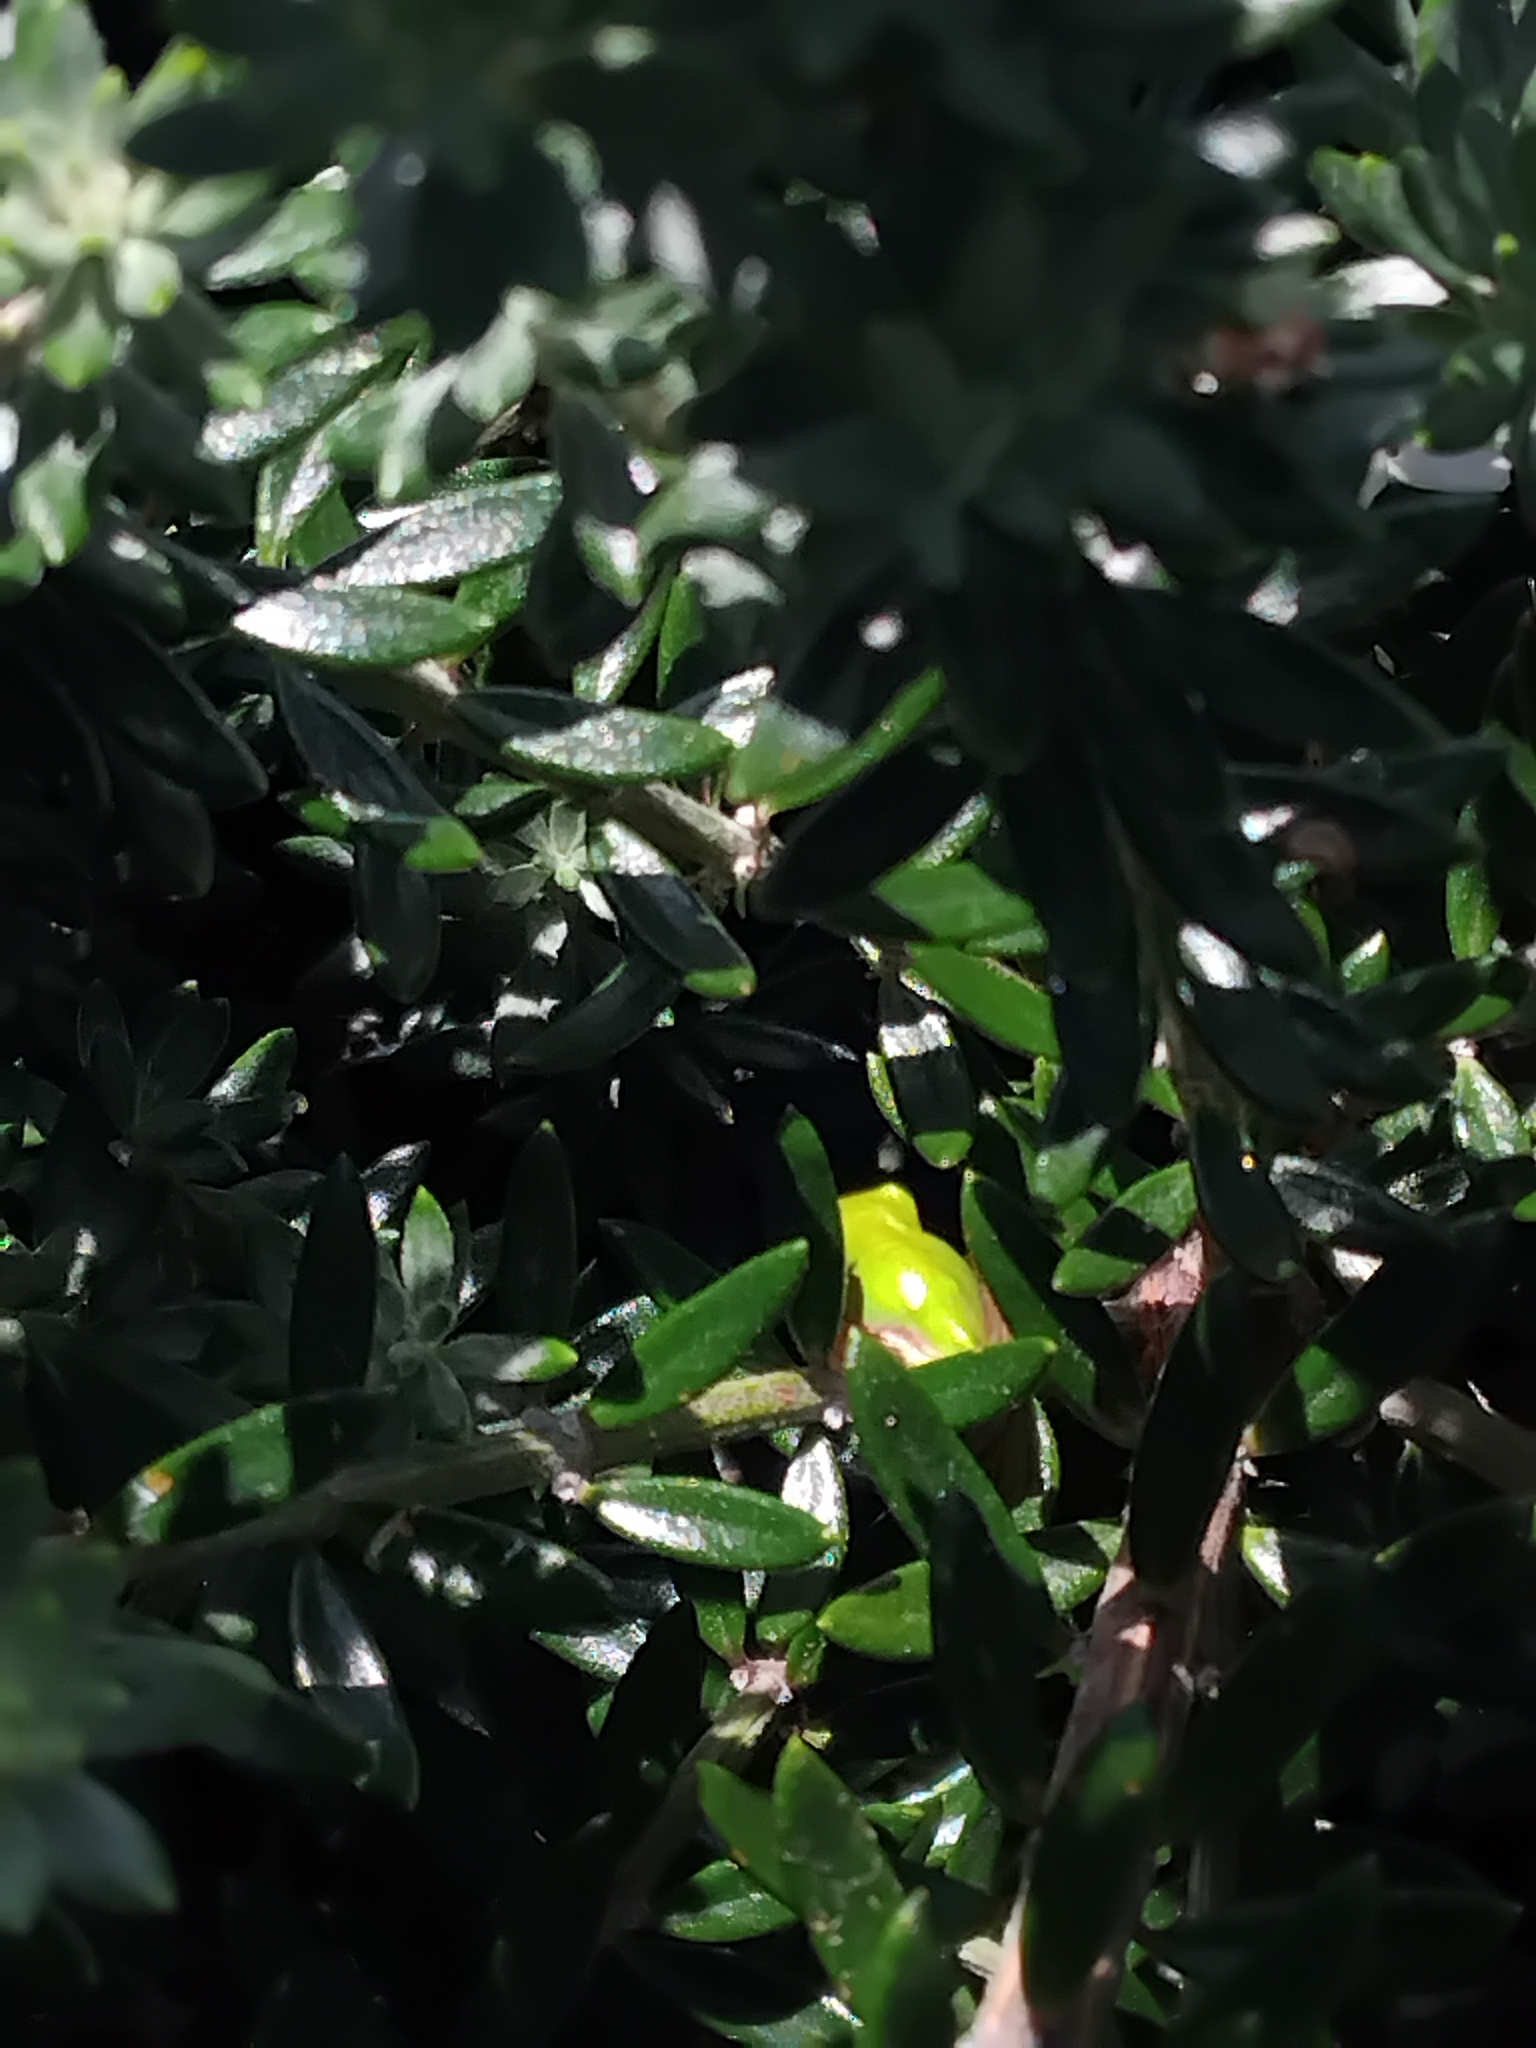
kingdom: Animalia
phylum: Chordata
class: Amphibia
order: Anura
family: Pelodryadidae
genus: Litoria
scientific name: Litoria fallax
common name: Eastern dwarf treefrog
